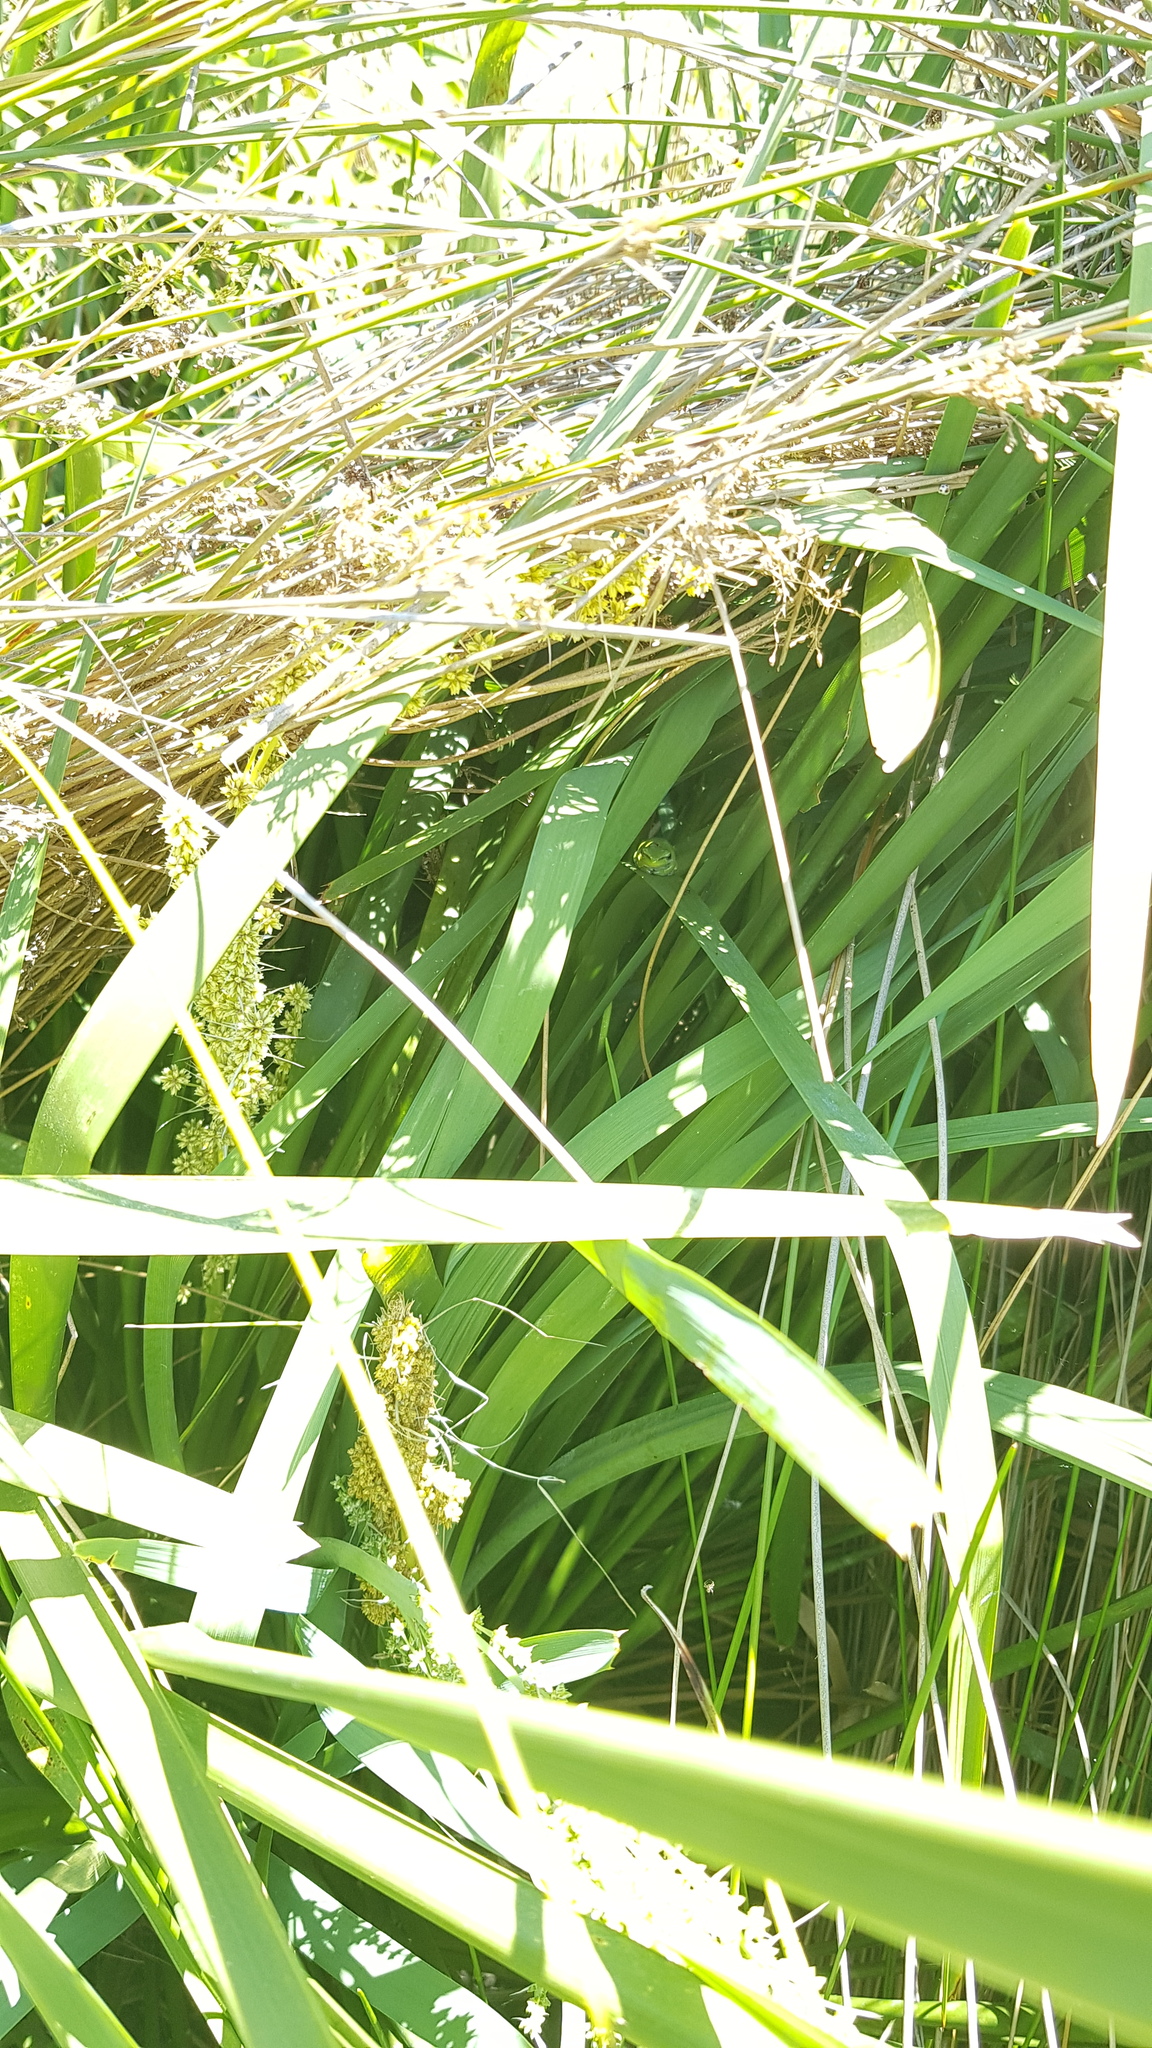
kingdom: Animalia
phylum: Chordata
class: Amphibia
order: Anura
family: Pelodryadidae
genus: Litoria
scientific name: Litoria fallax
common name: Eastern dwarf treefrog
